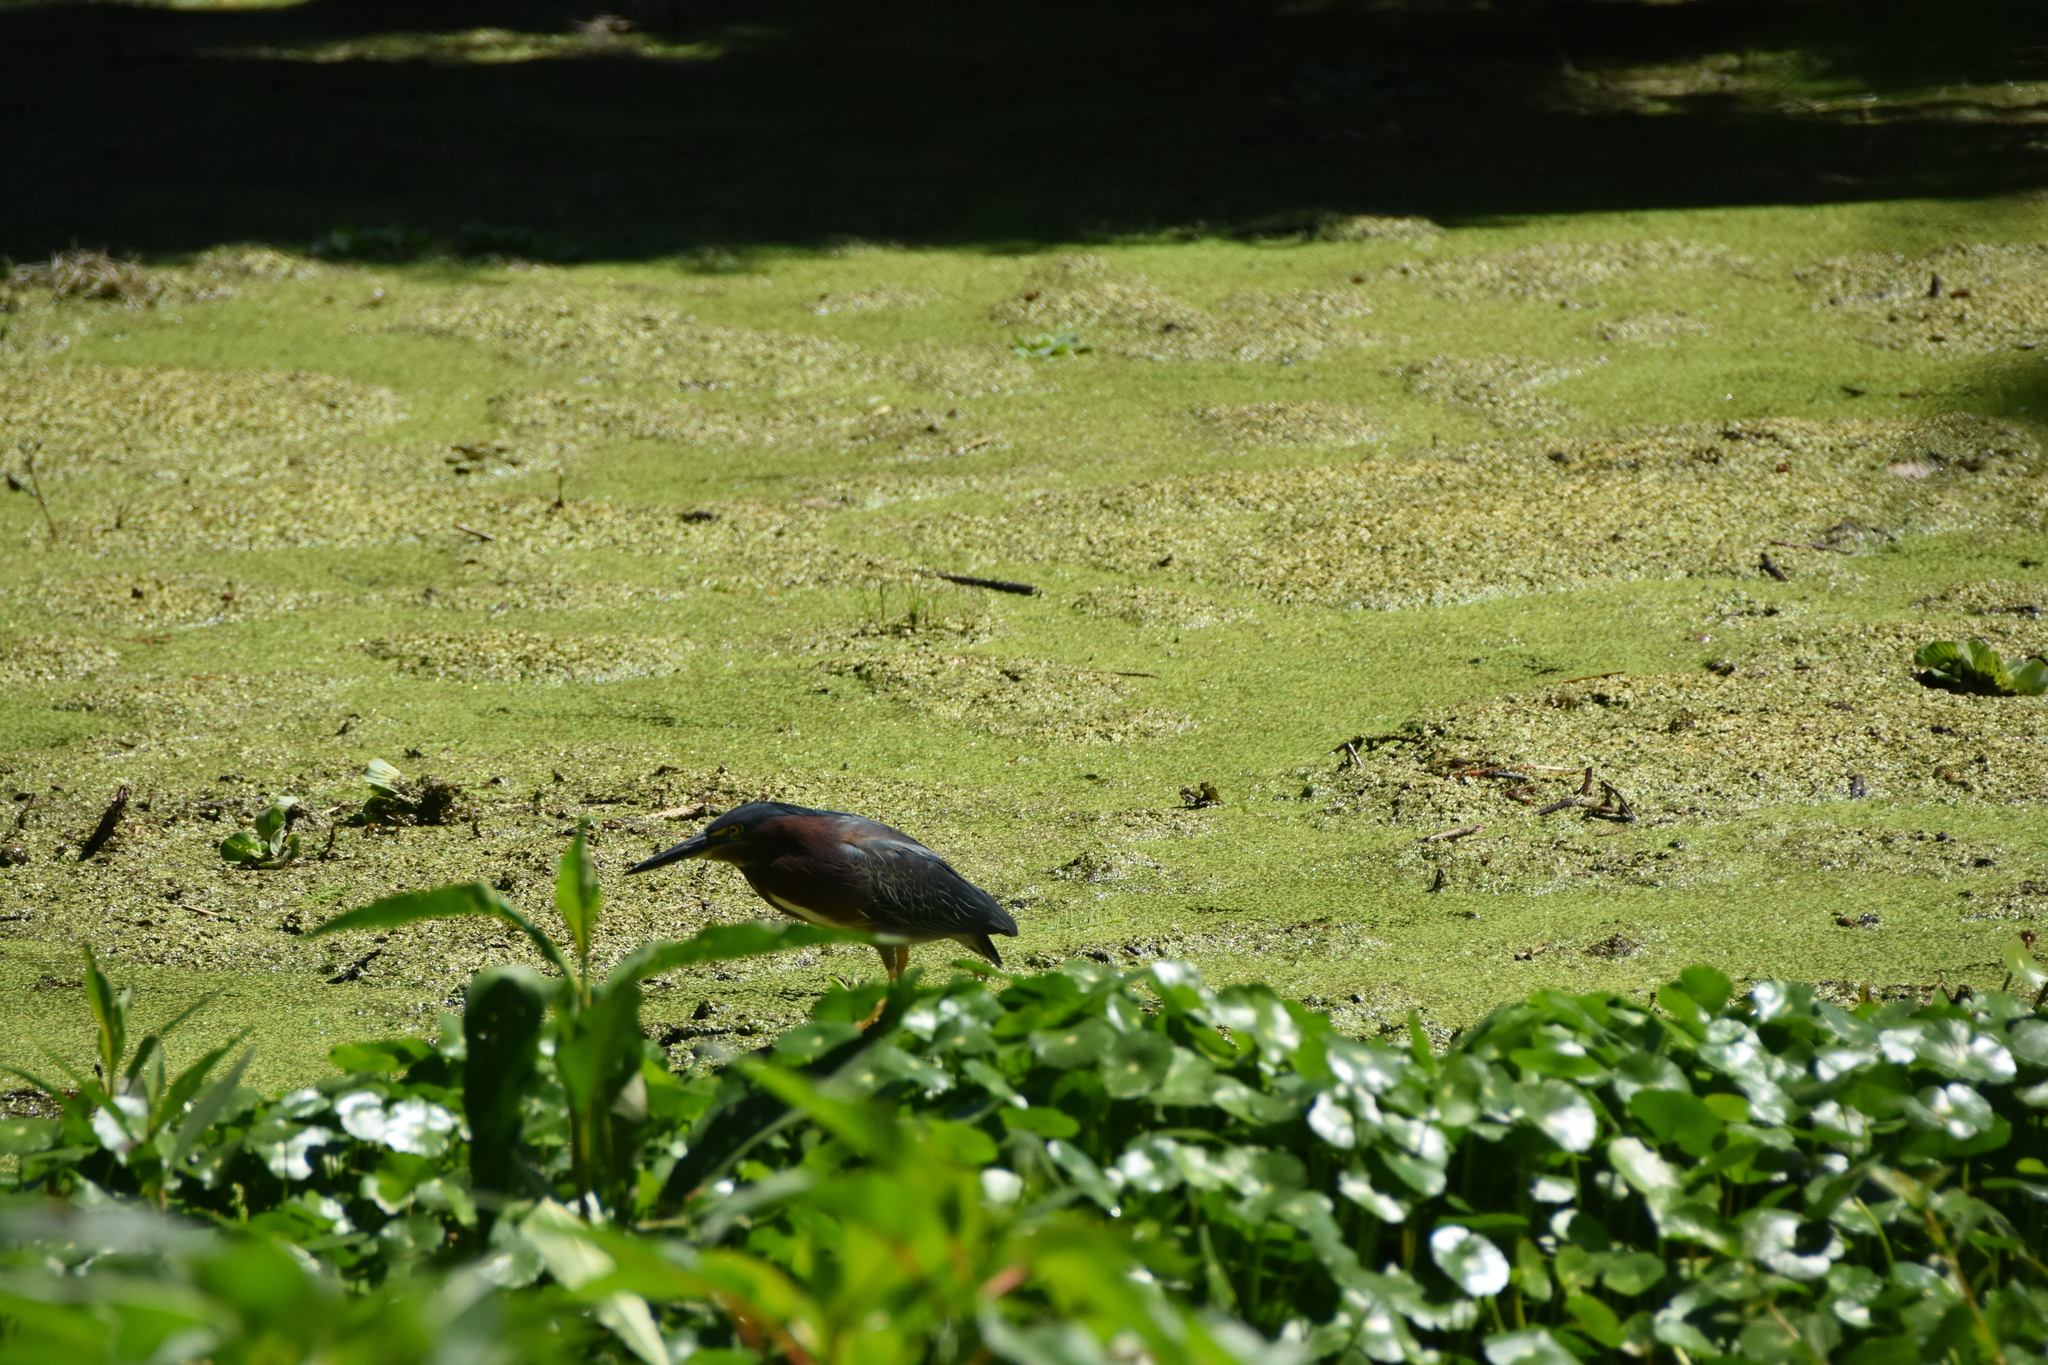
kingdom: Animalia
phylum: Chordata
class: Aves
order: Pelecaniformes
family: Ardeidae
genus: Butorides
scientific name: Butorides virescens
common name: Green heron
